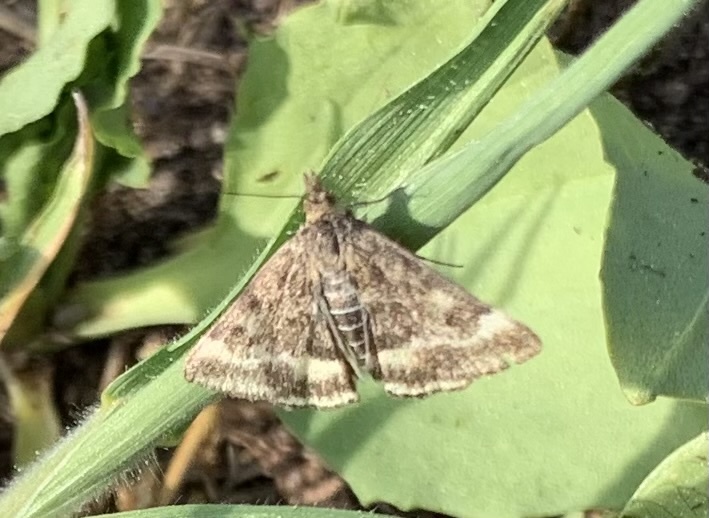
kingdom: Animalia
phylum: Arthropoda
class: Insecta
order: Lepidoptera
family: Crambidae
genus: Pyrausta
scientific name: Pyrausta despicata
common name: Straw-barred pearl
